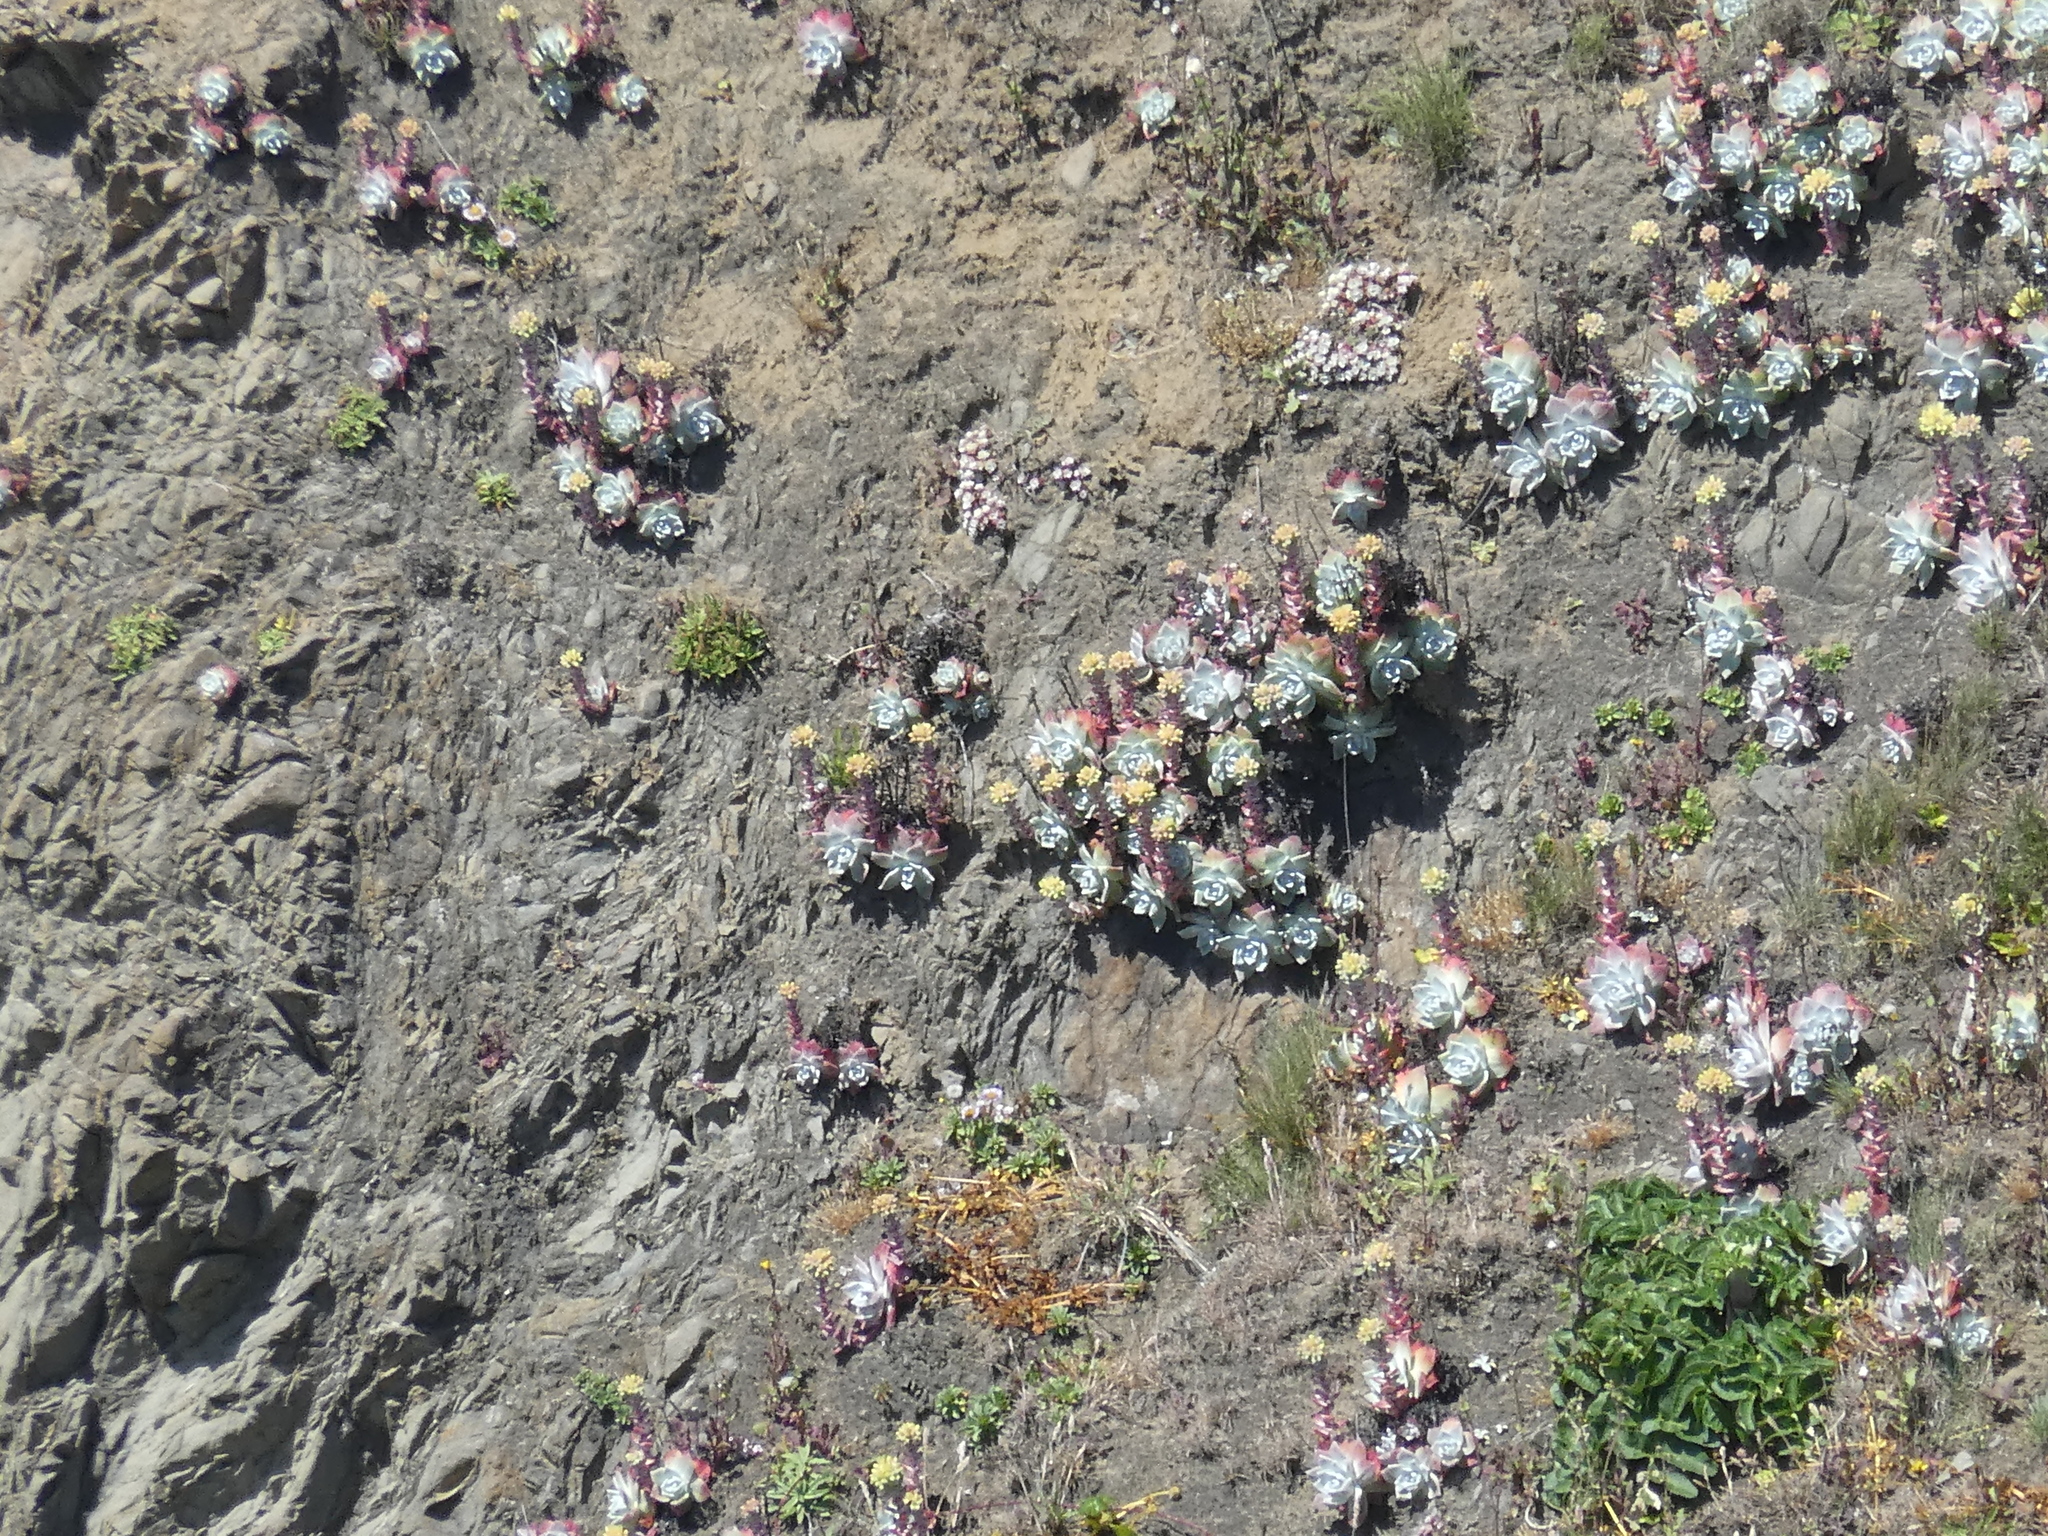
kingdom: Plantae
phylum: Tracheophyta
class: Magnoliopsida
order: Saxifragales
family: Crassulaceae
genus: Dudleya
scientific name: Dudleya farinosa
